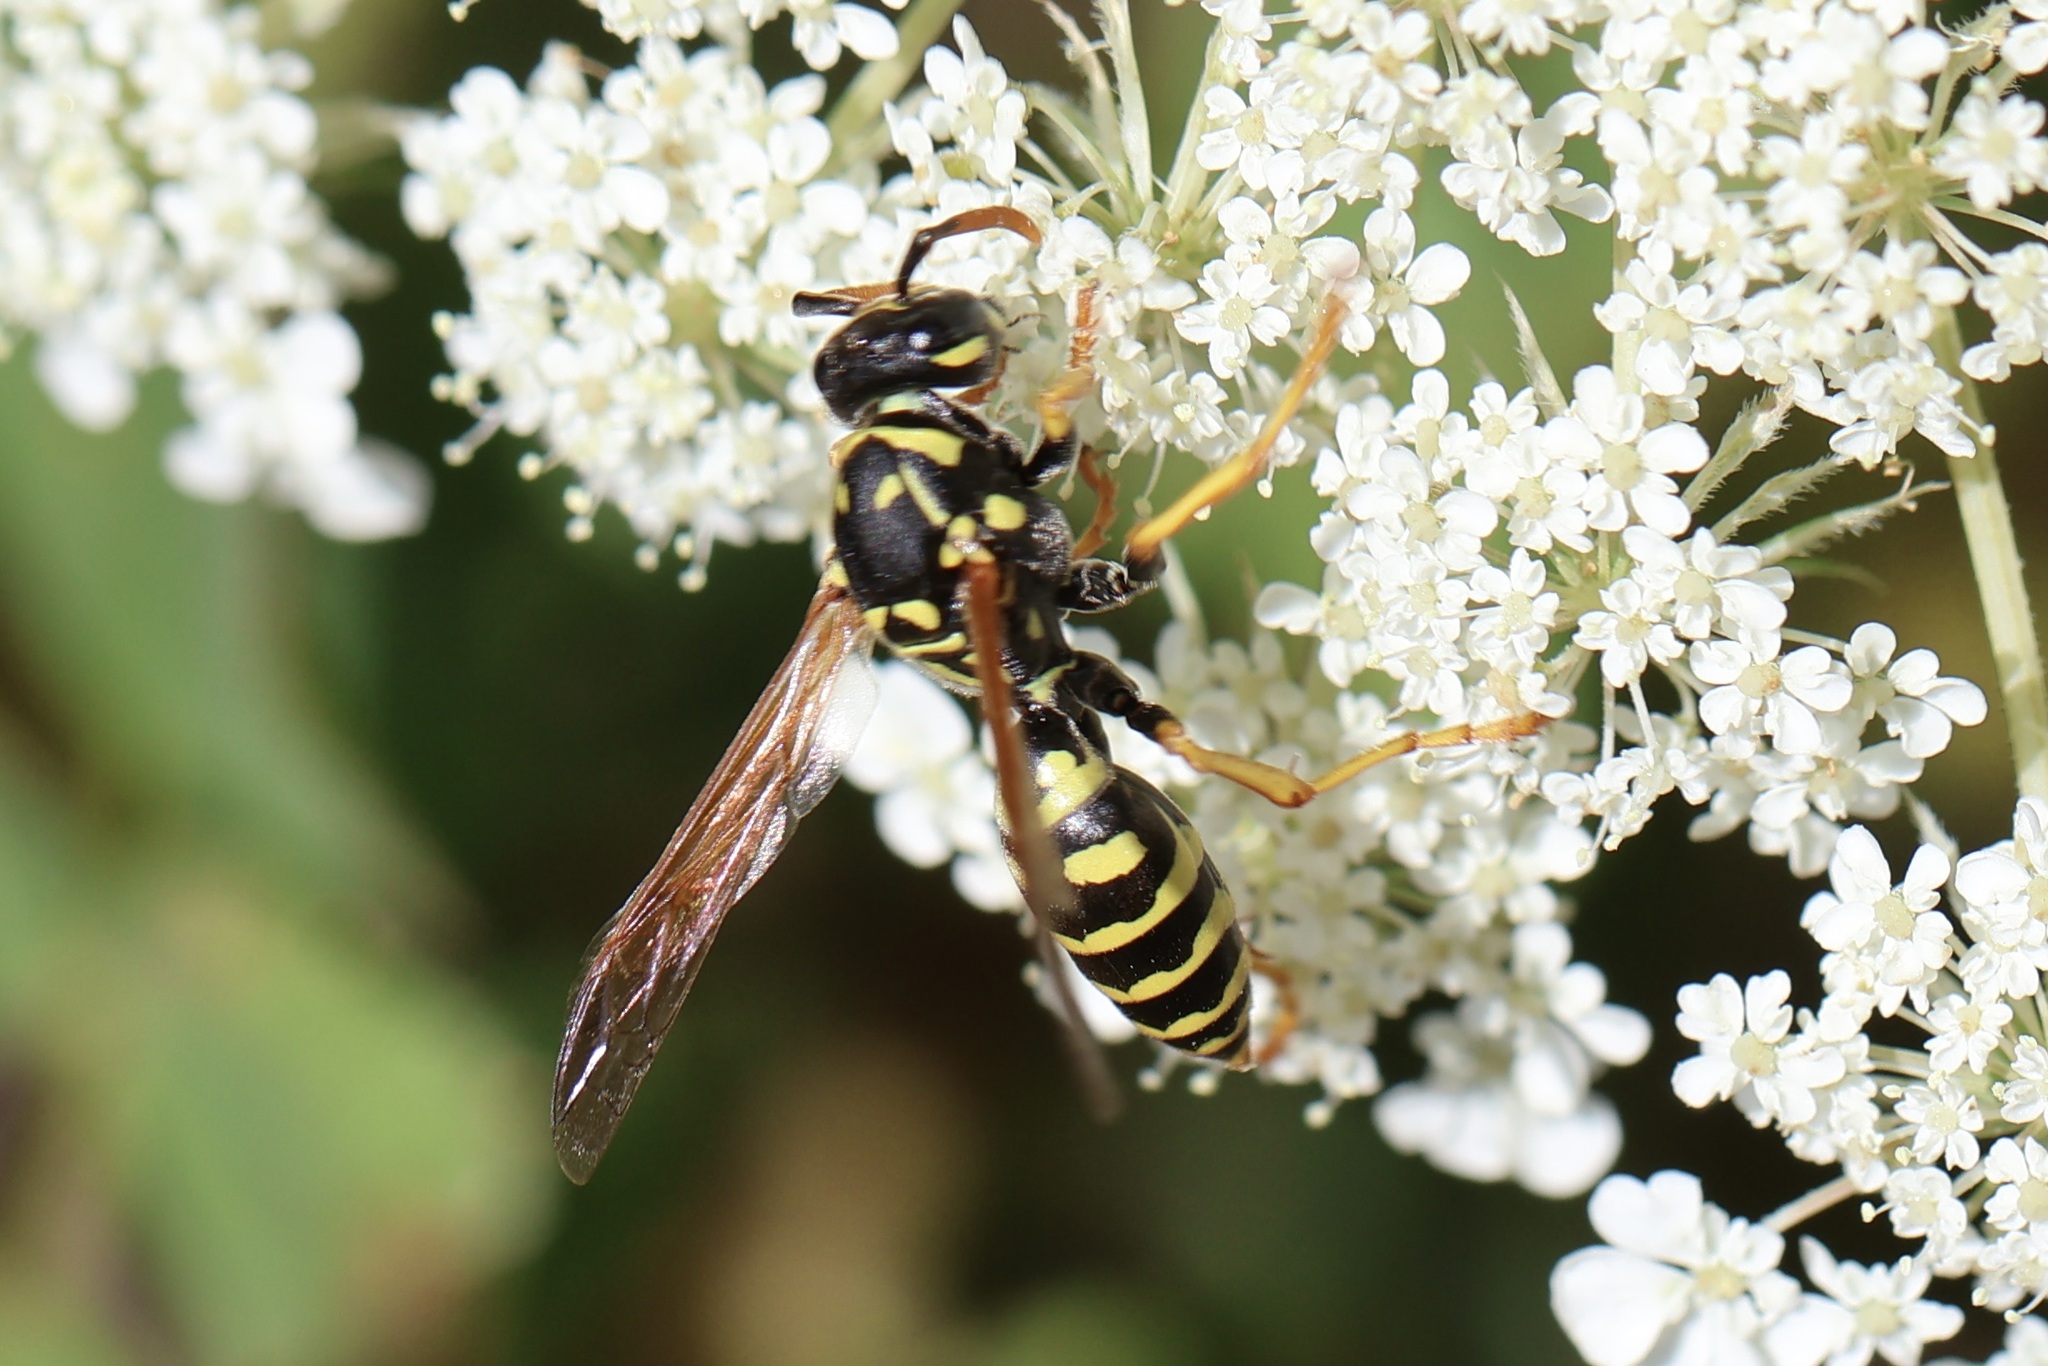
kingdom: Animalia
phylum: Arthropoda
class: Insecta
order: Hymenoptera
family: Eumenidae
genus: Polistes
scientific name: Polistes dominula
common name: Paper wasp
